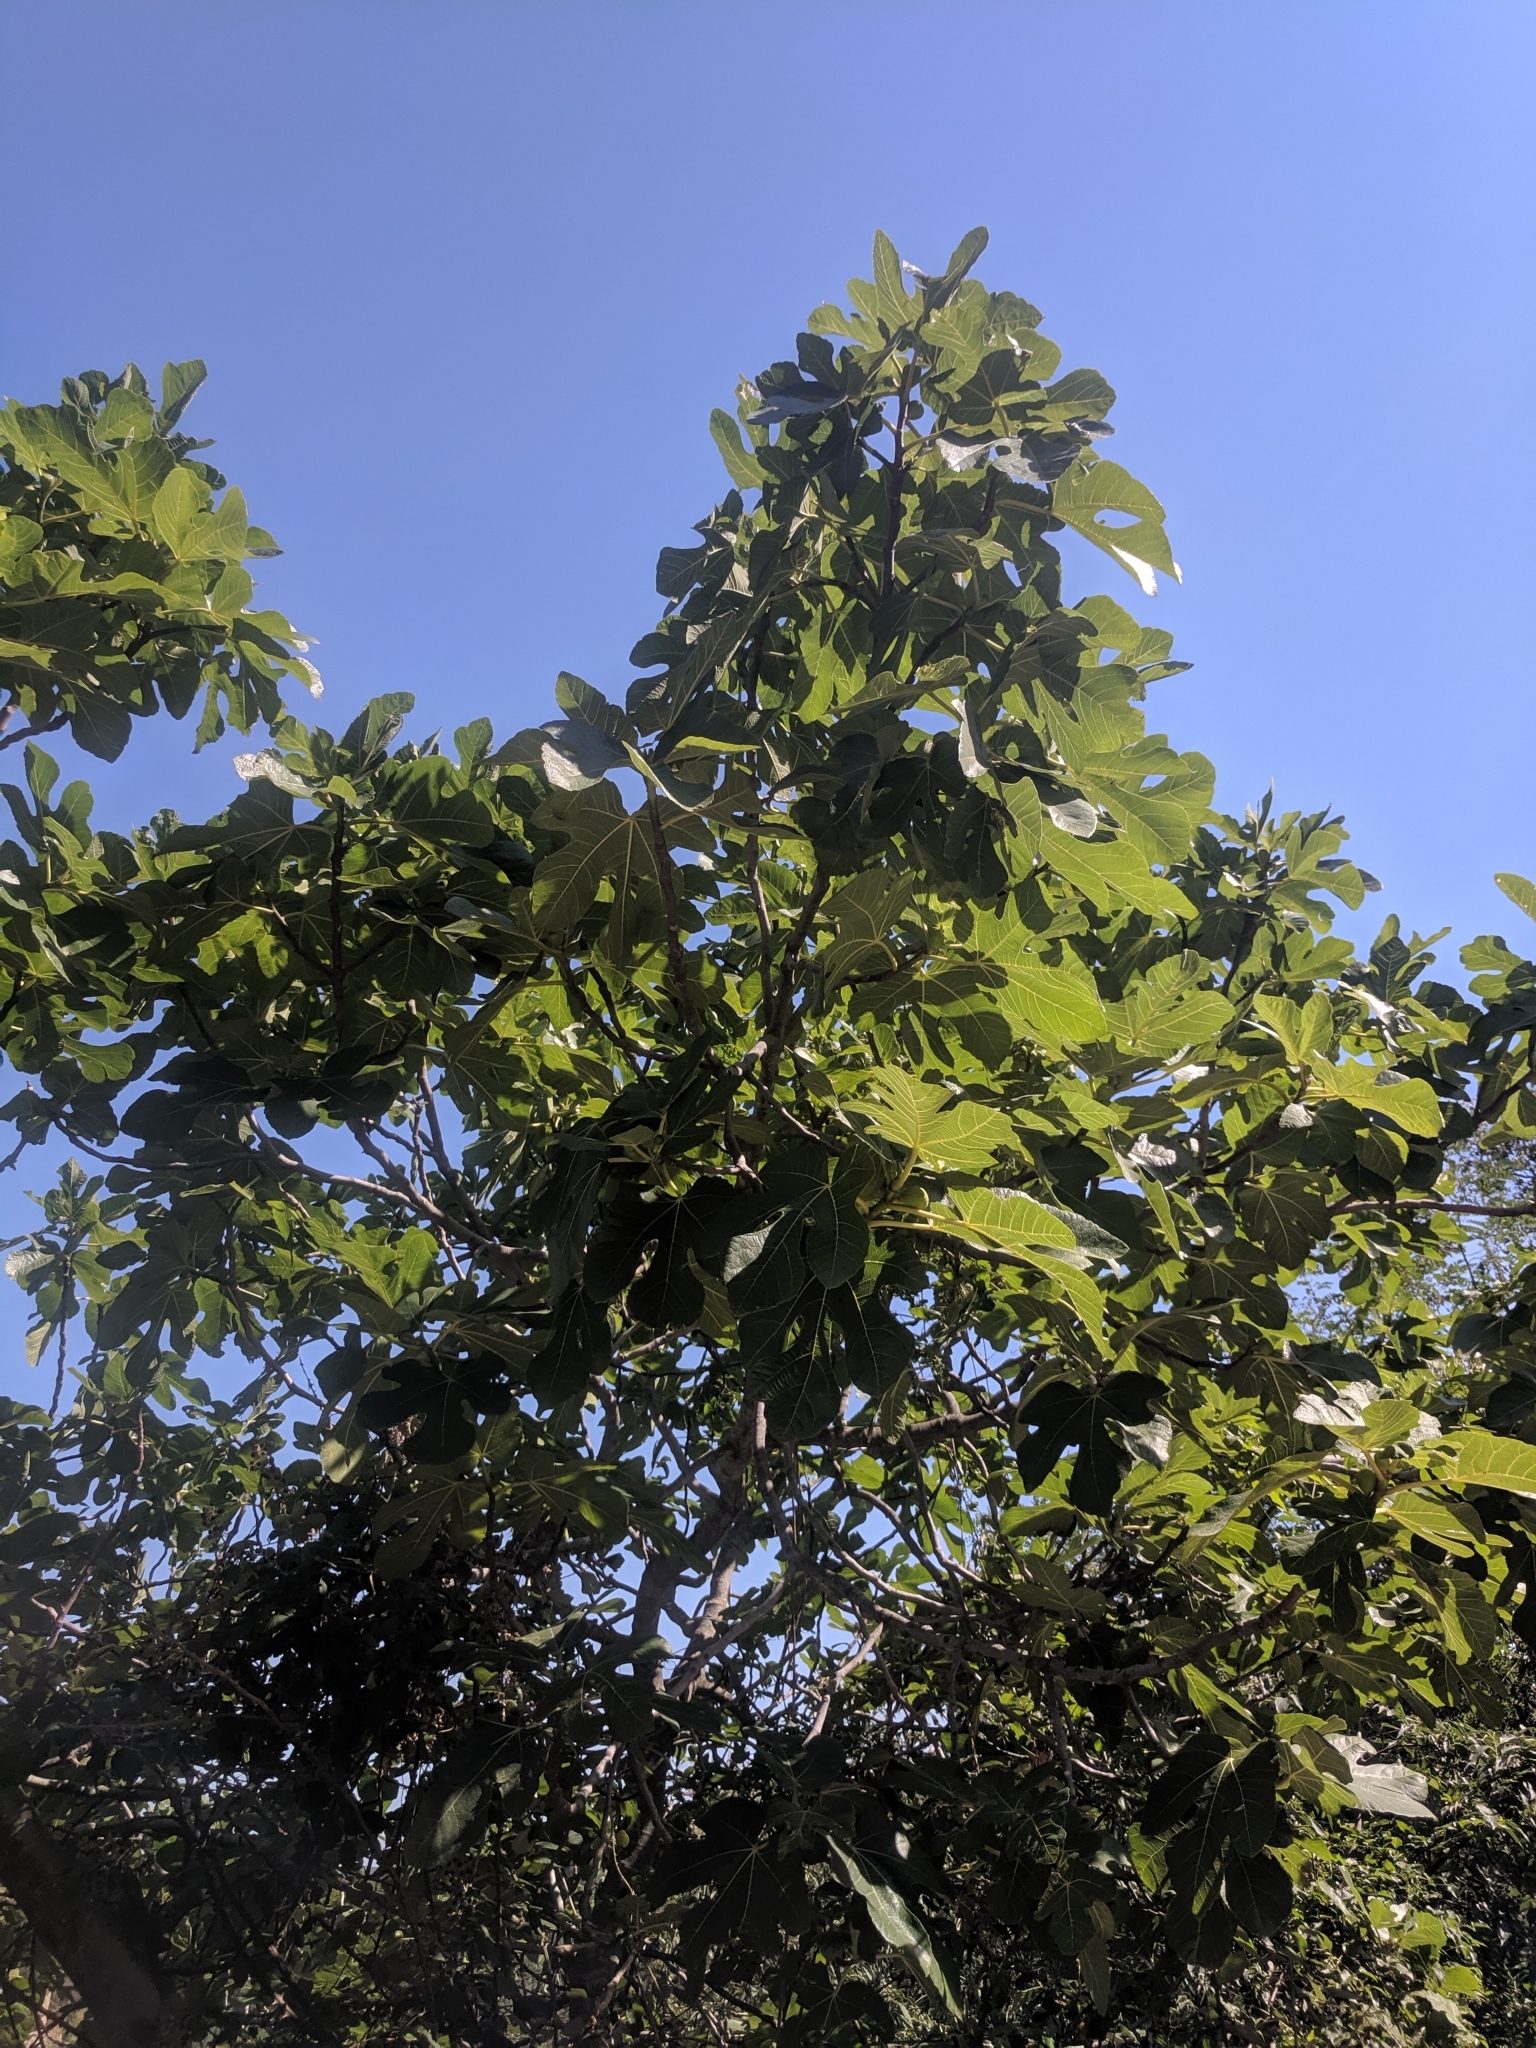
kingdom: Plantae
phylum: Tracheophyta
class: Magnoliopsida
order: Rosales
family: Moraceae
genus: Ficus
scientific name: Ficus carica
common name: Fig
